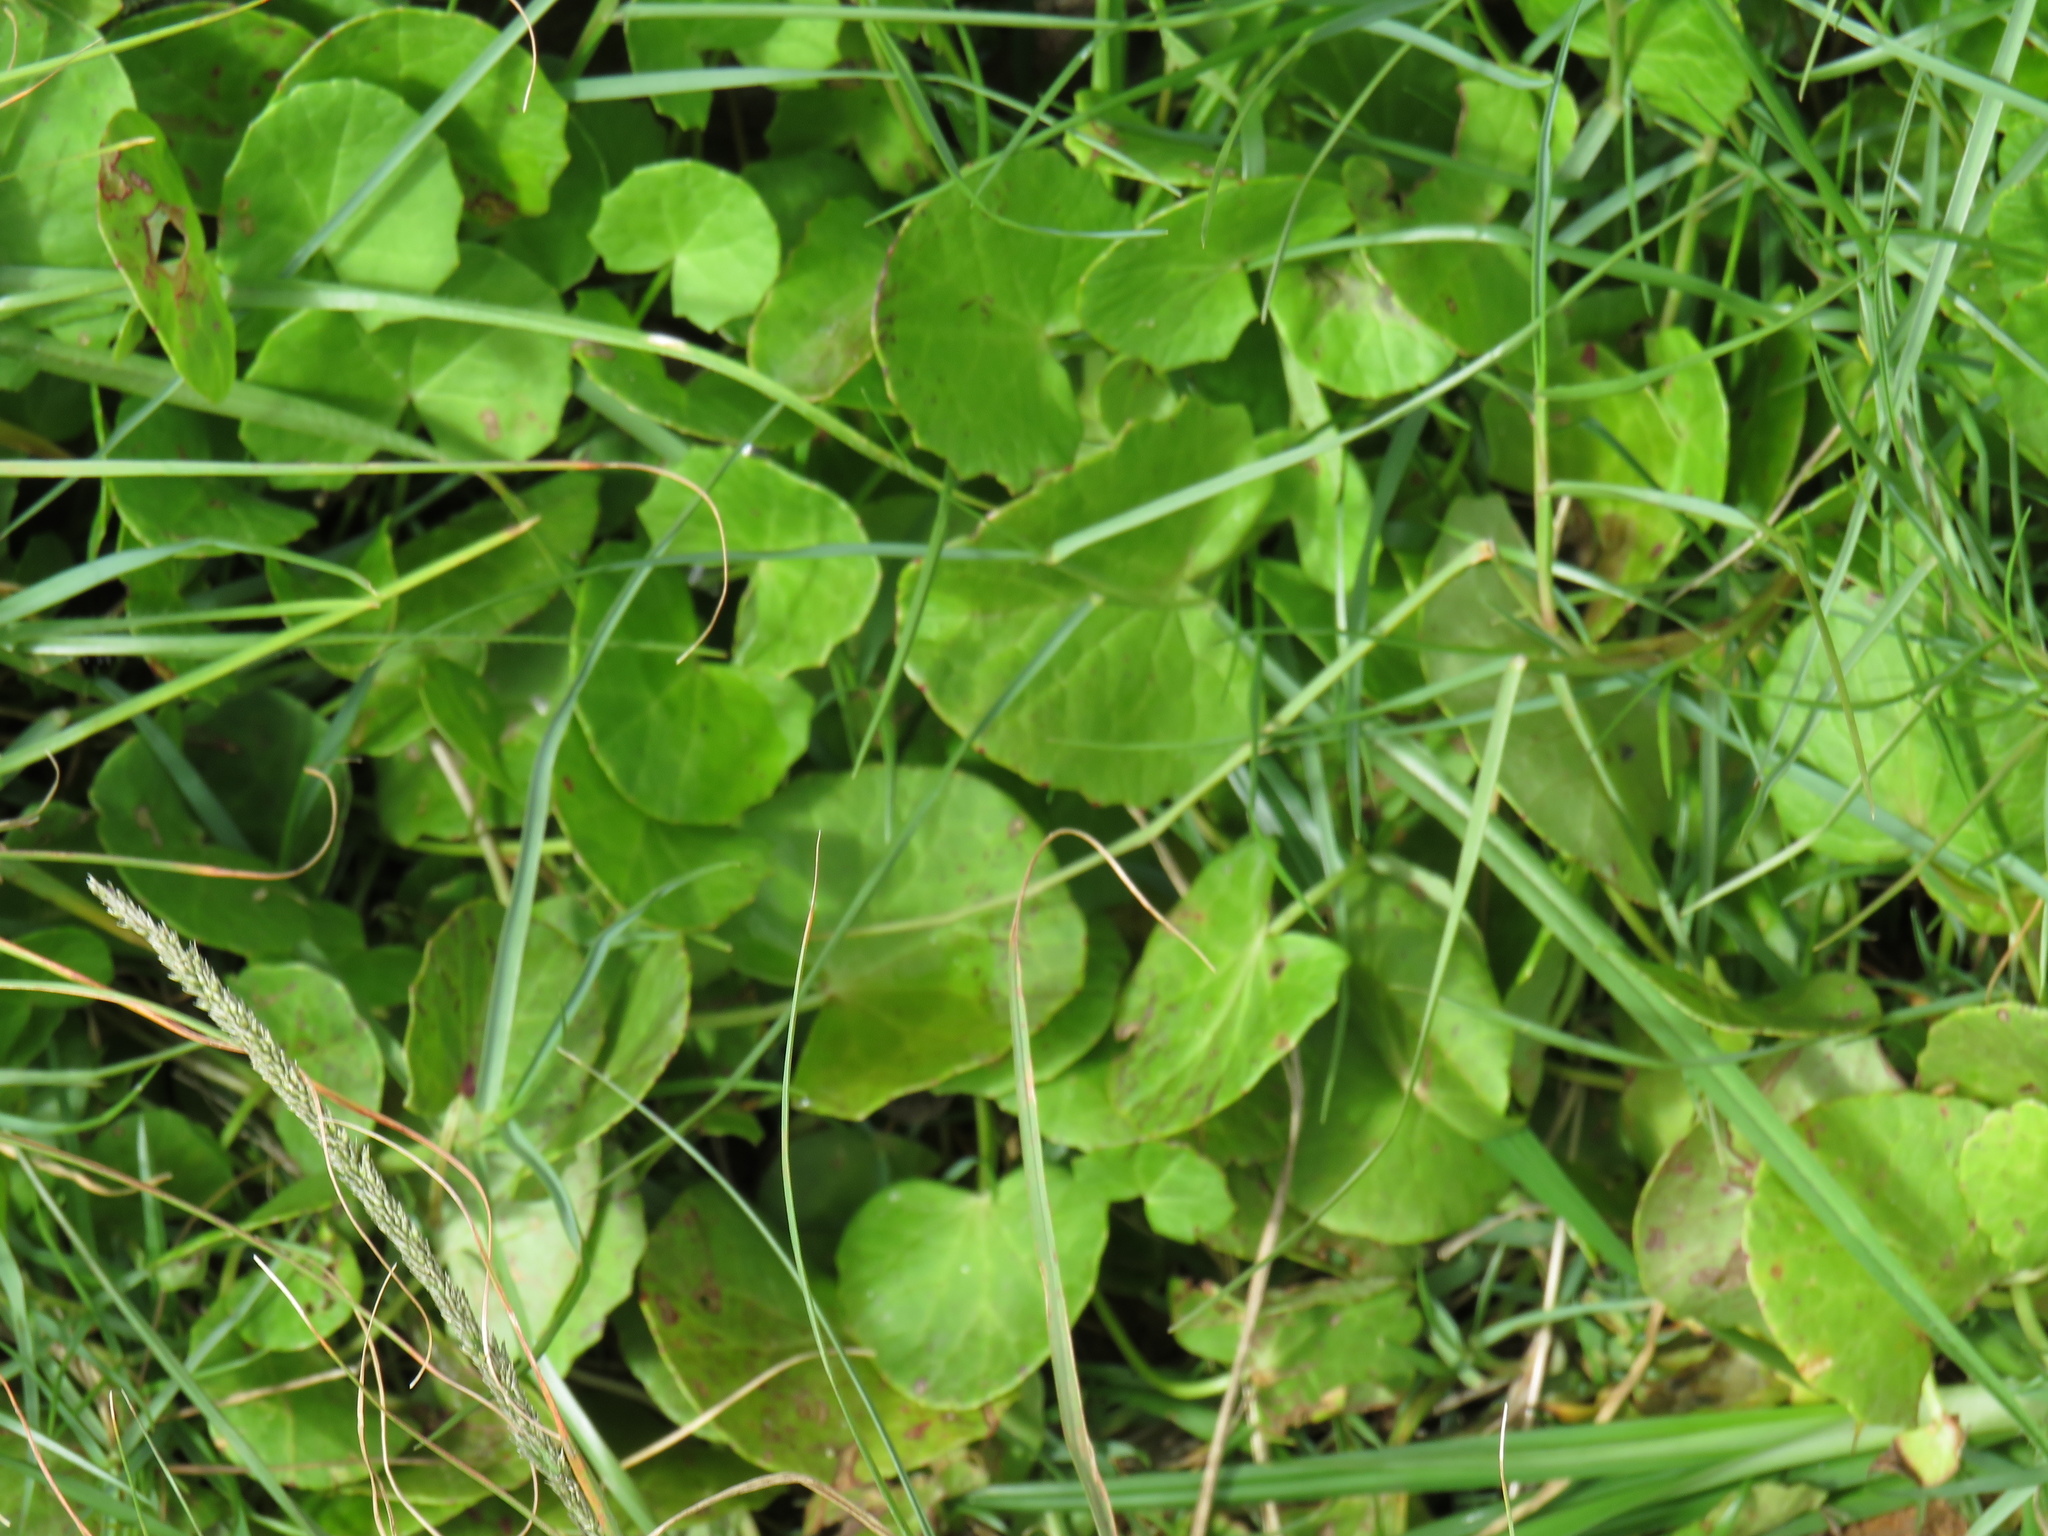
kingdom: Plantae
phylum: Tracheophyta
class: Magnoliopsida
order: Apiales
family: Apiaceae
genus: Centella
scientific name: Centella asiatica
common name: Spadeleaf
